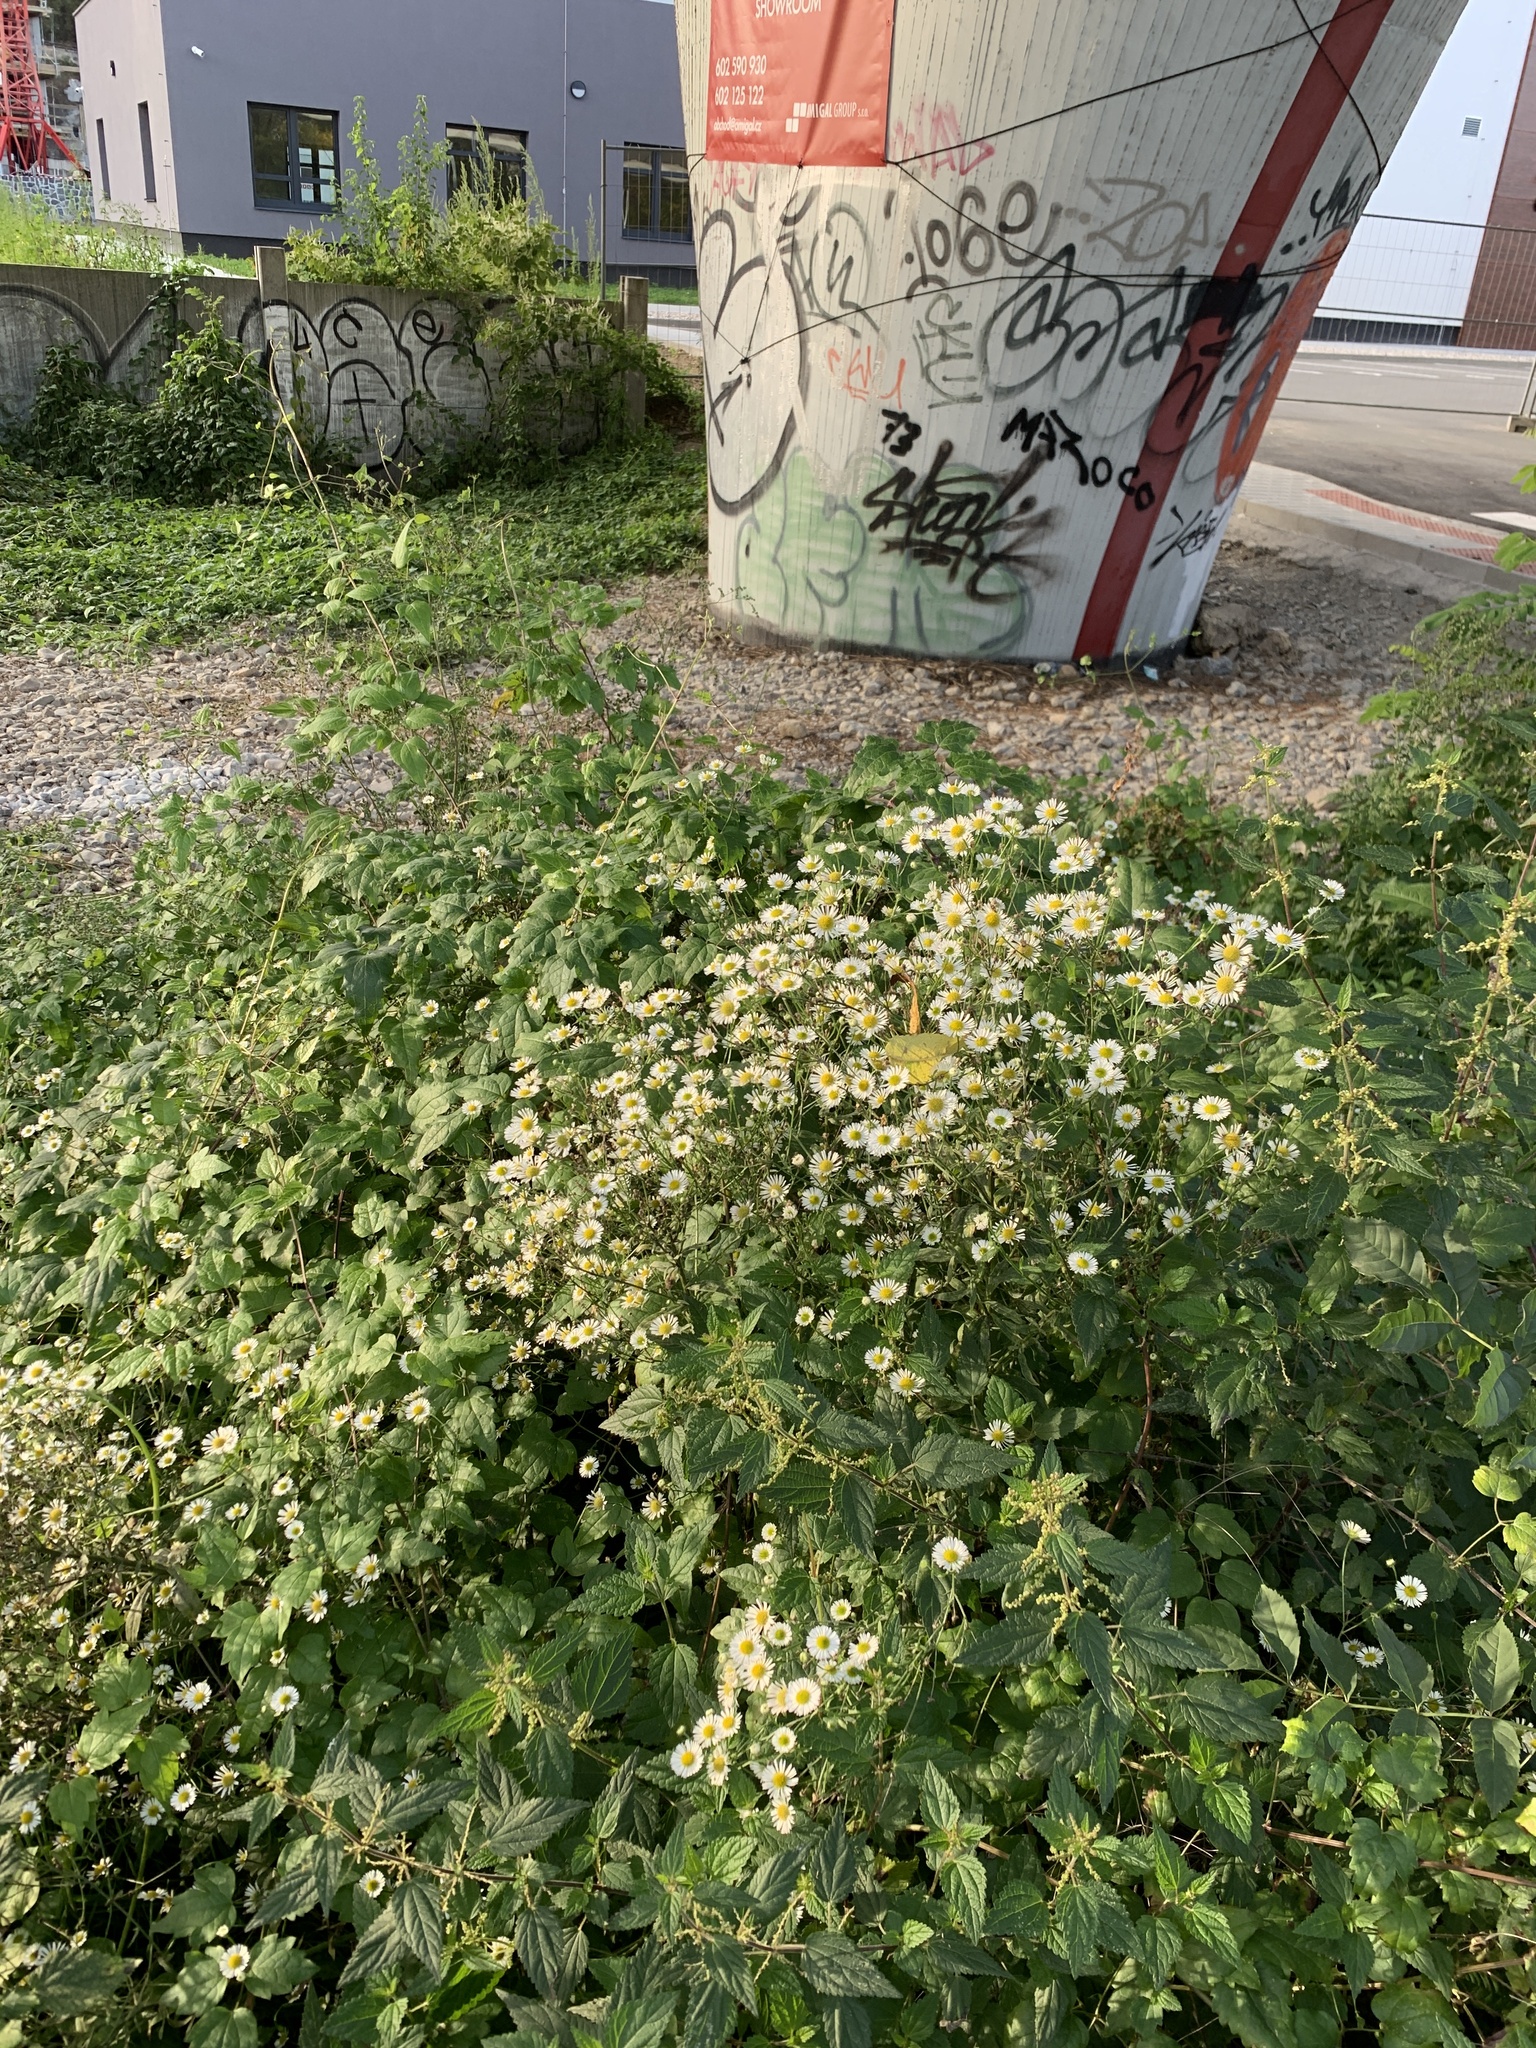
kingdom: Plantae
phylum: Tracheophyta
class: Magnoliopsida
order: Asterales
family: Asteraceae
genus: Erigeron
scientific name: Erigeron annuus
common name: Tall fleabane
